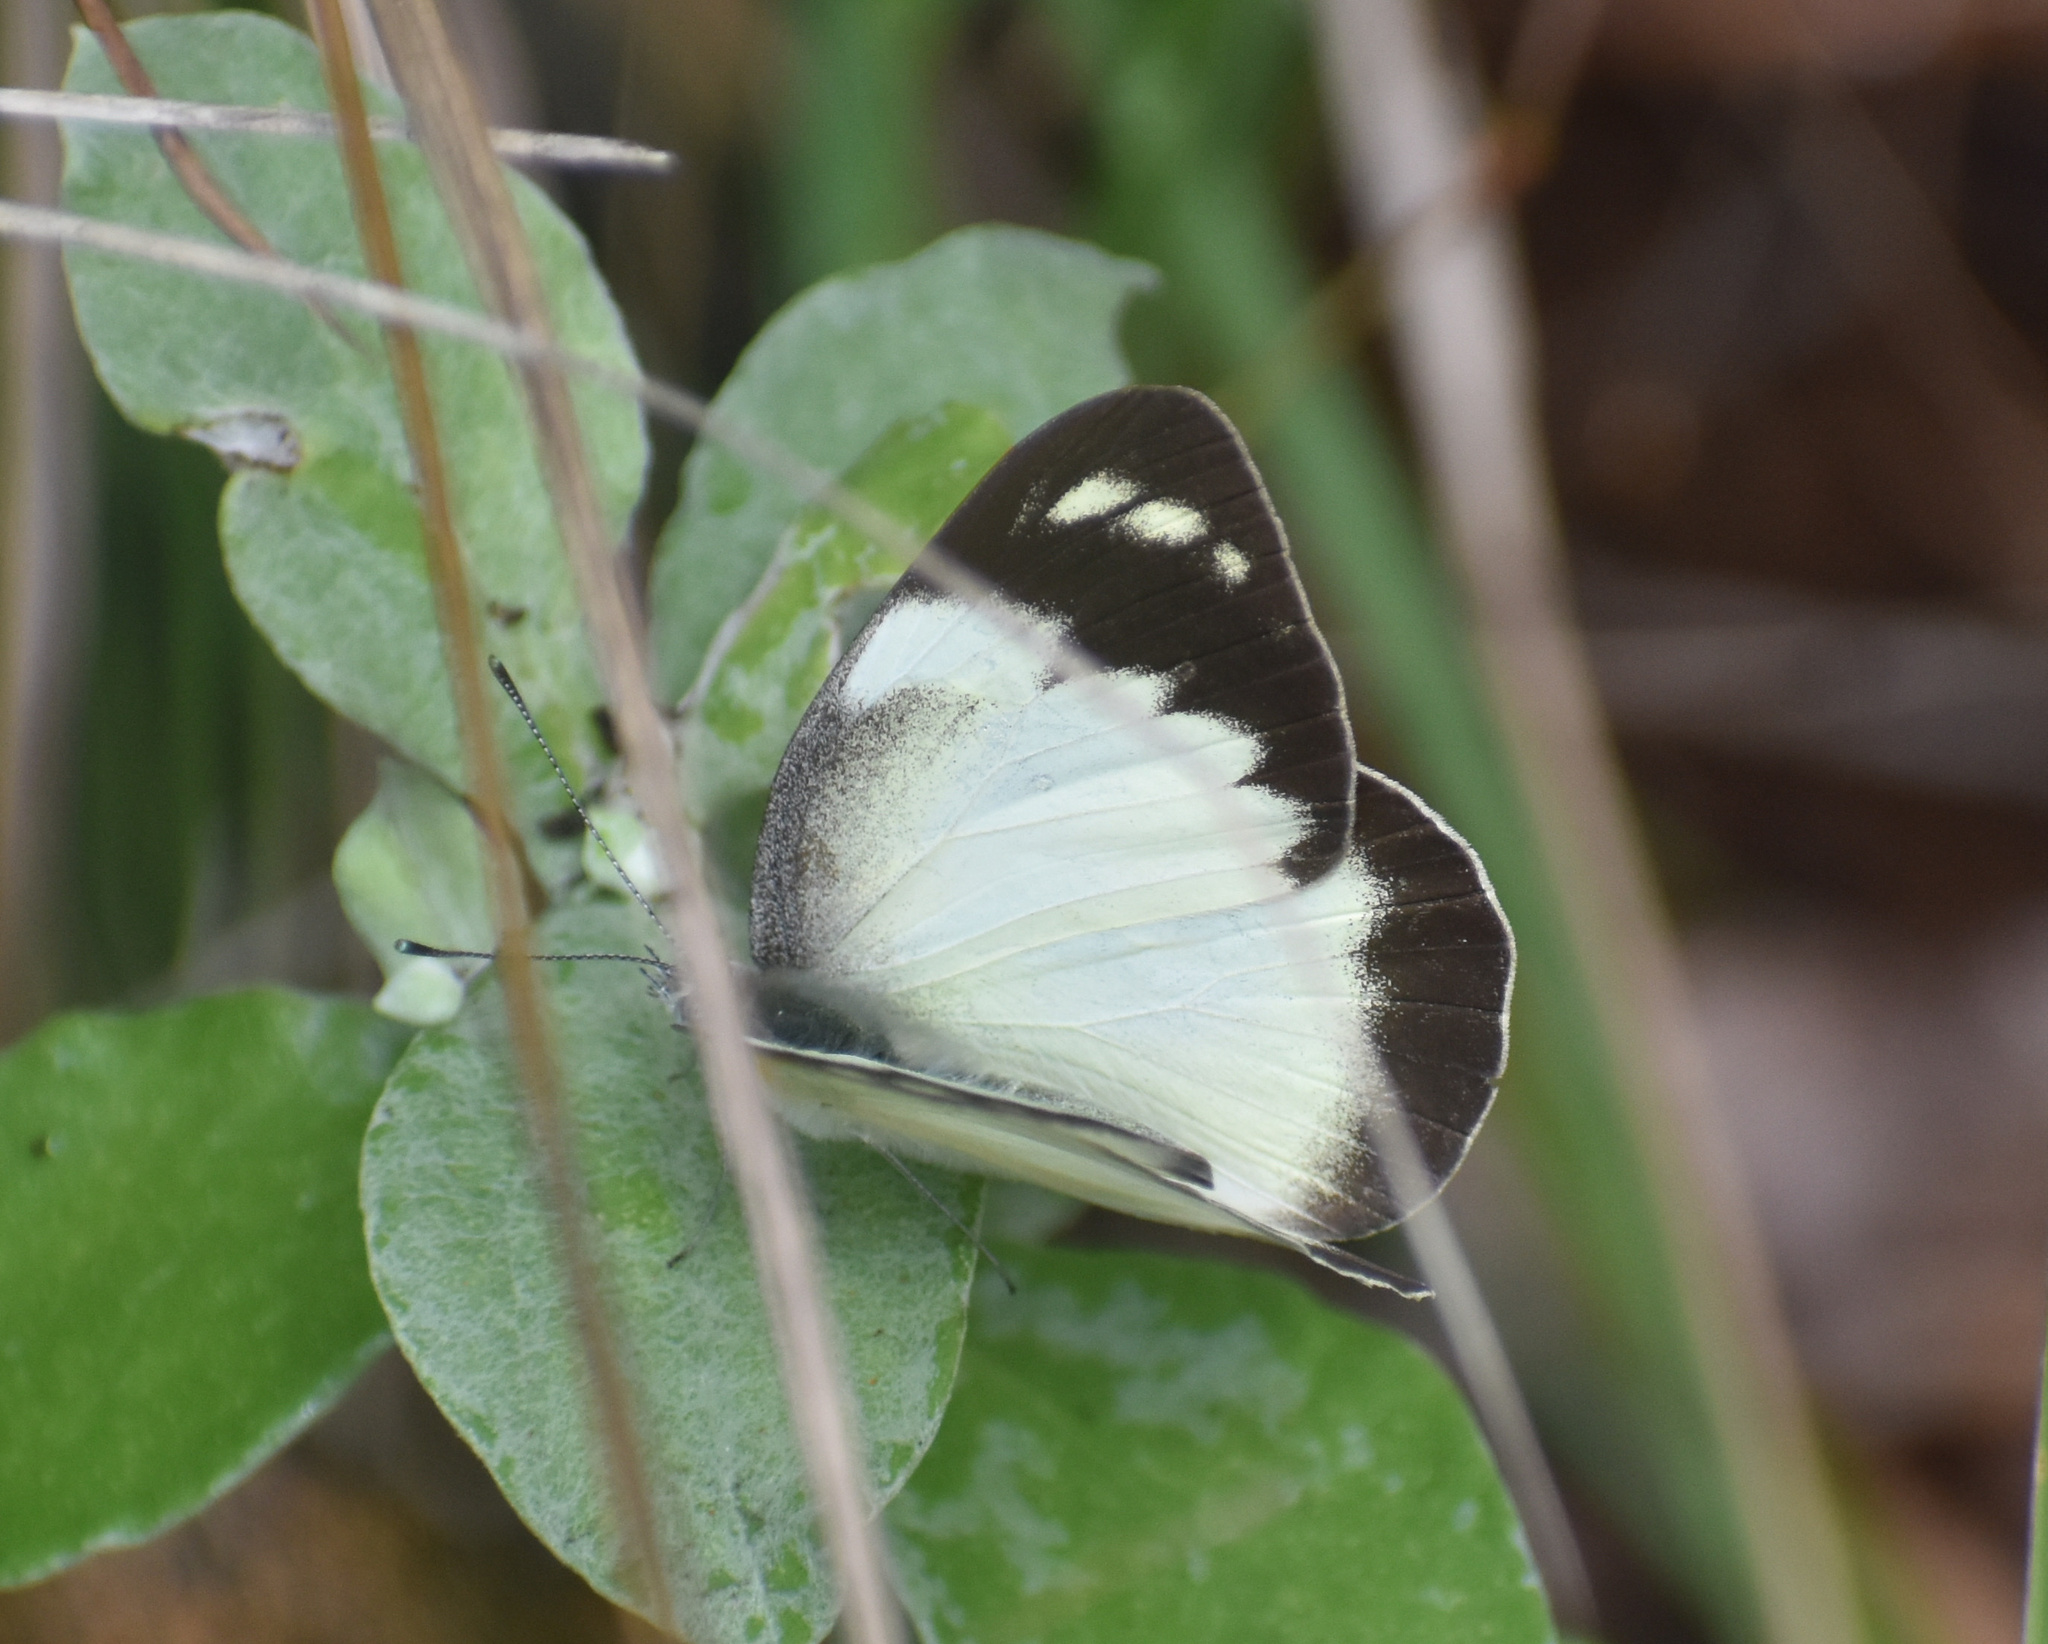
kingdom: Animalia
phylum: Arthropoda
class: Insecta
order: Lepidoptera
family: Pieridae
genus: Glutophrissa
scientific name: Glutophrissa epaphia
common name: African albatross
